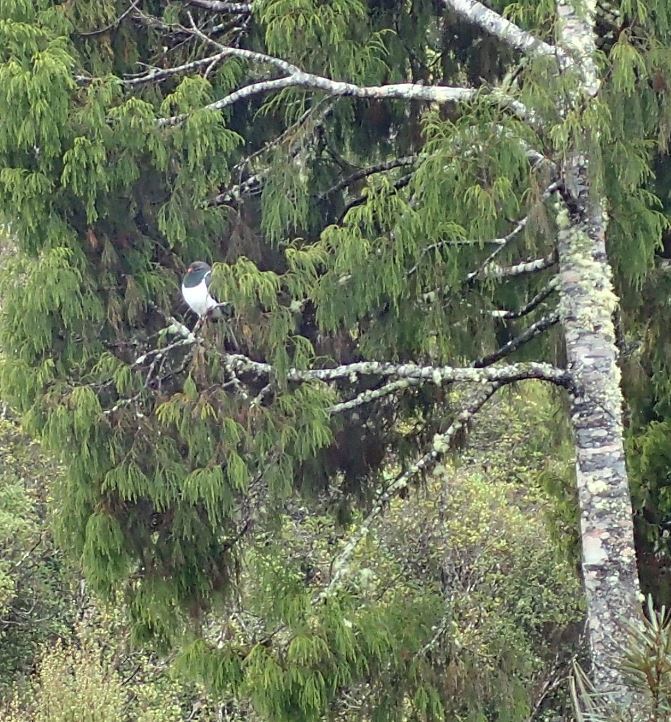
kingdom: Animalia
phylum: Chordata
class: Aves
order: Columbiformes
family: Columbidae
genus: Hemiphaga
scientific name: Hemiphaga novaeseelandiae
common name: New zealand pigeon
